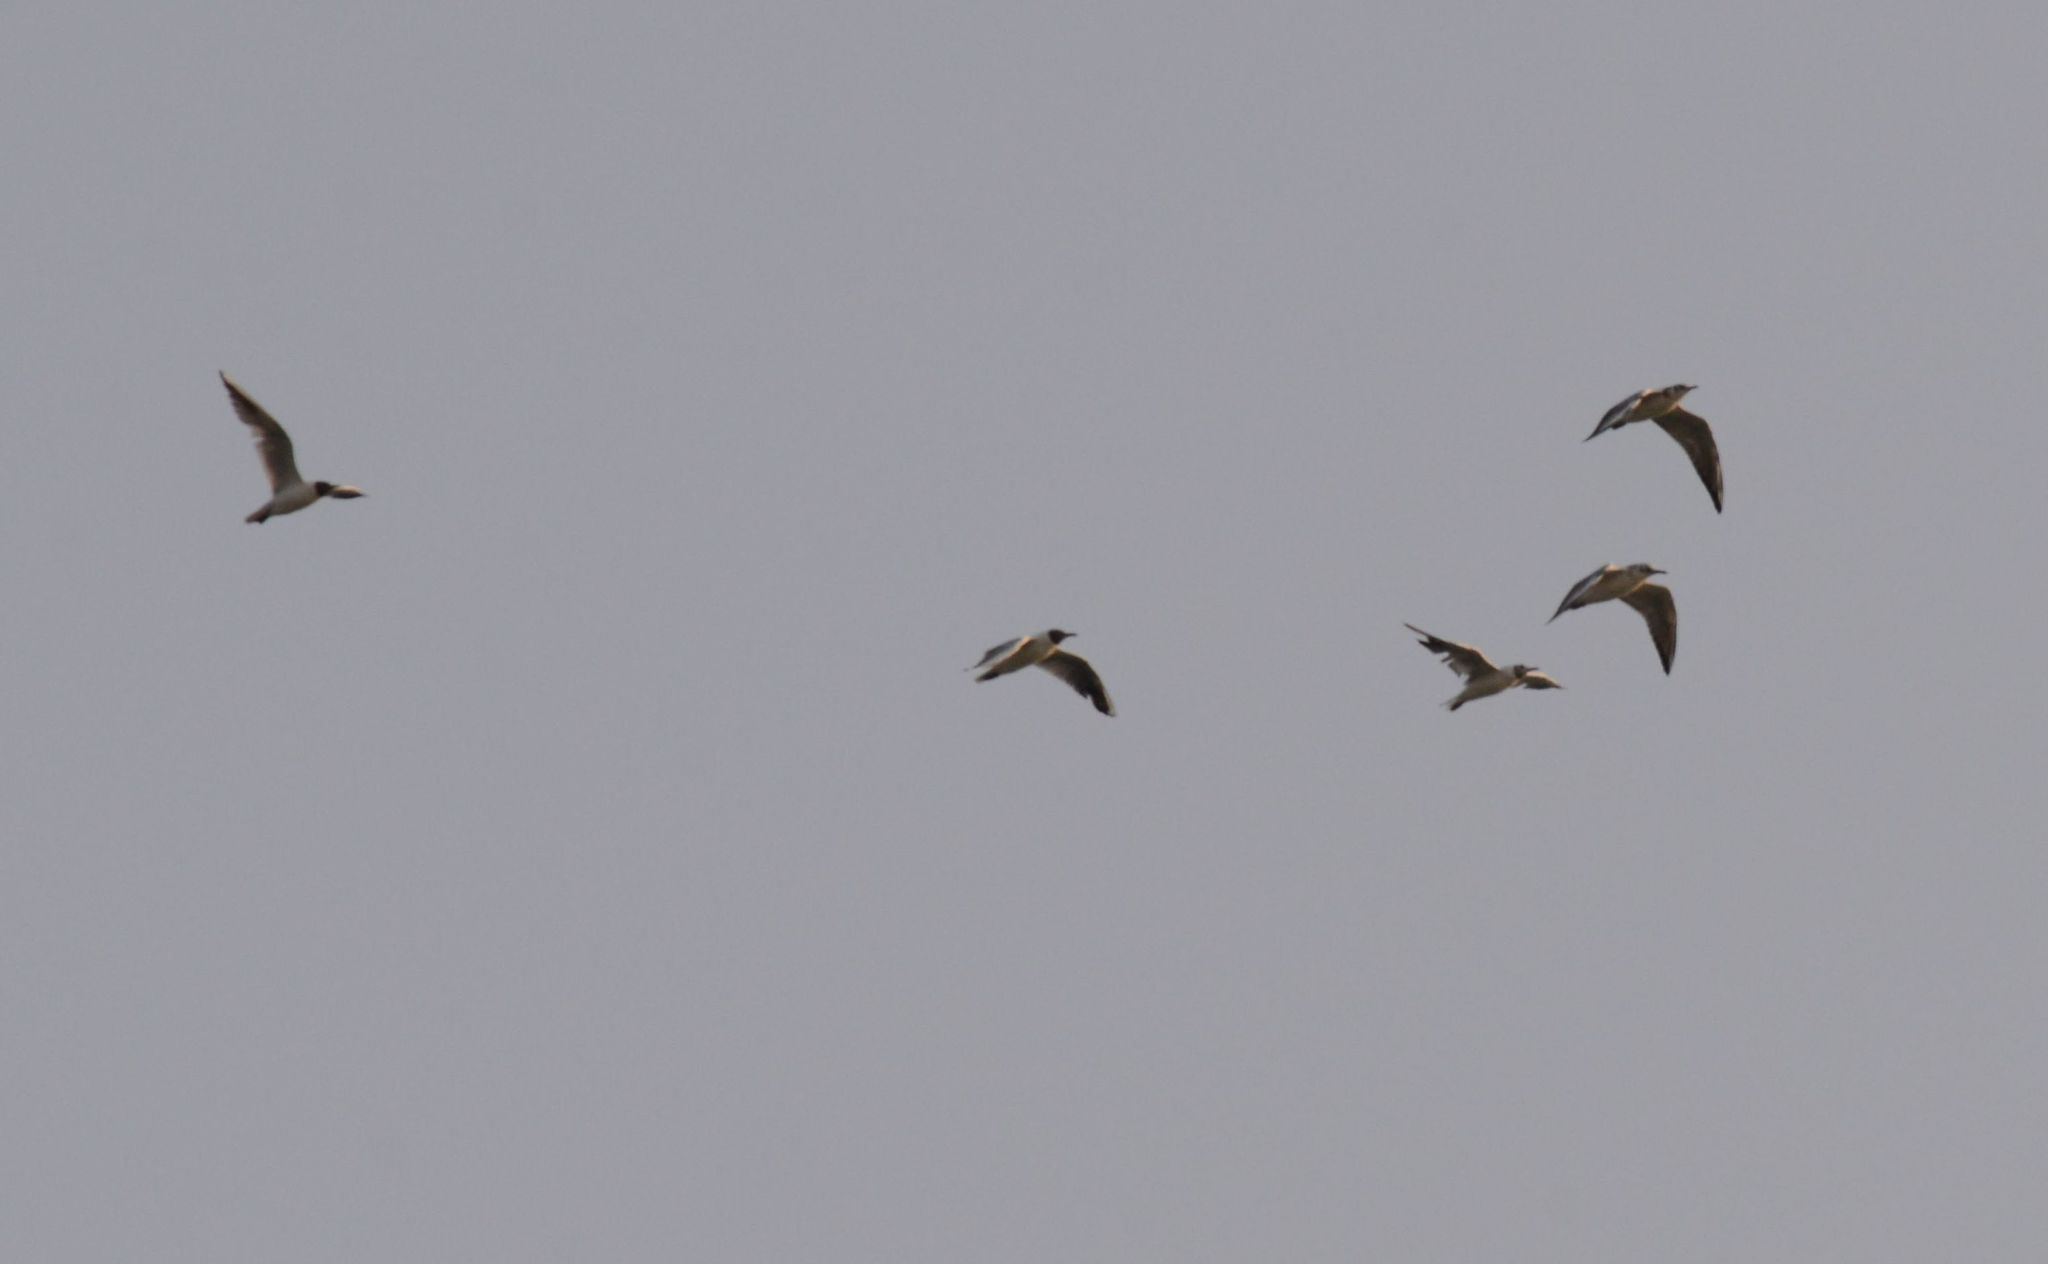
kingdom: Animalia
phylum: Chordata
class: Aves
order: Charadriiformes
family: Laridae
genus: Chroicocephalus
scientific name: Chroicocephalus ridibundus
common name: Black-headed gull
